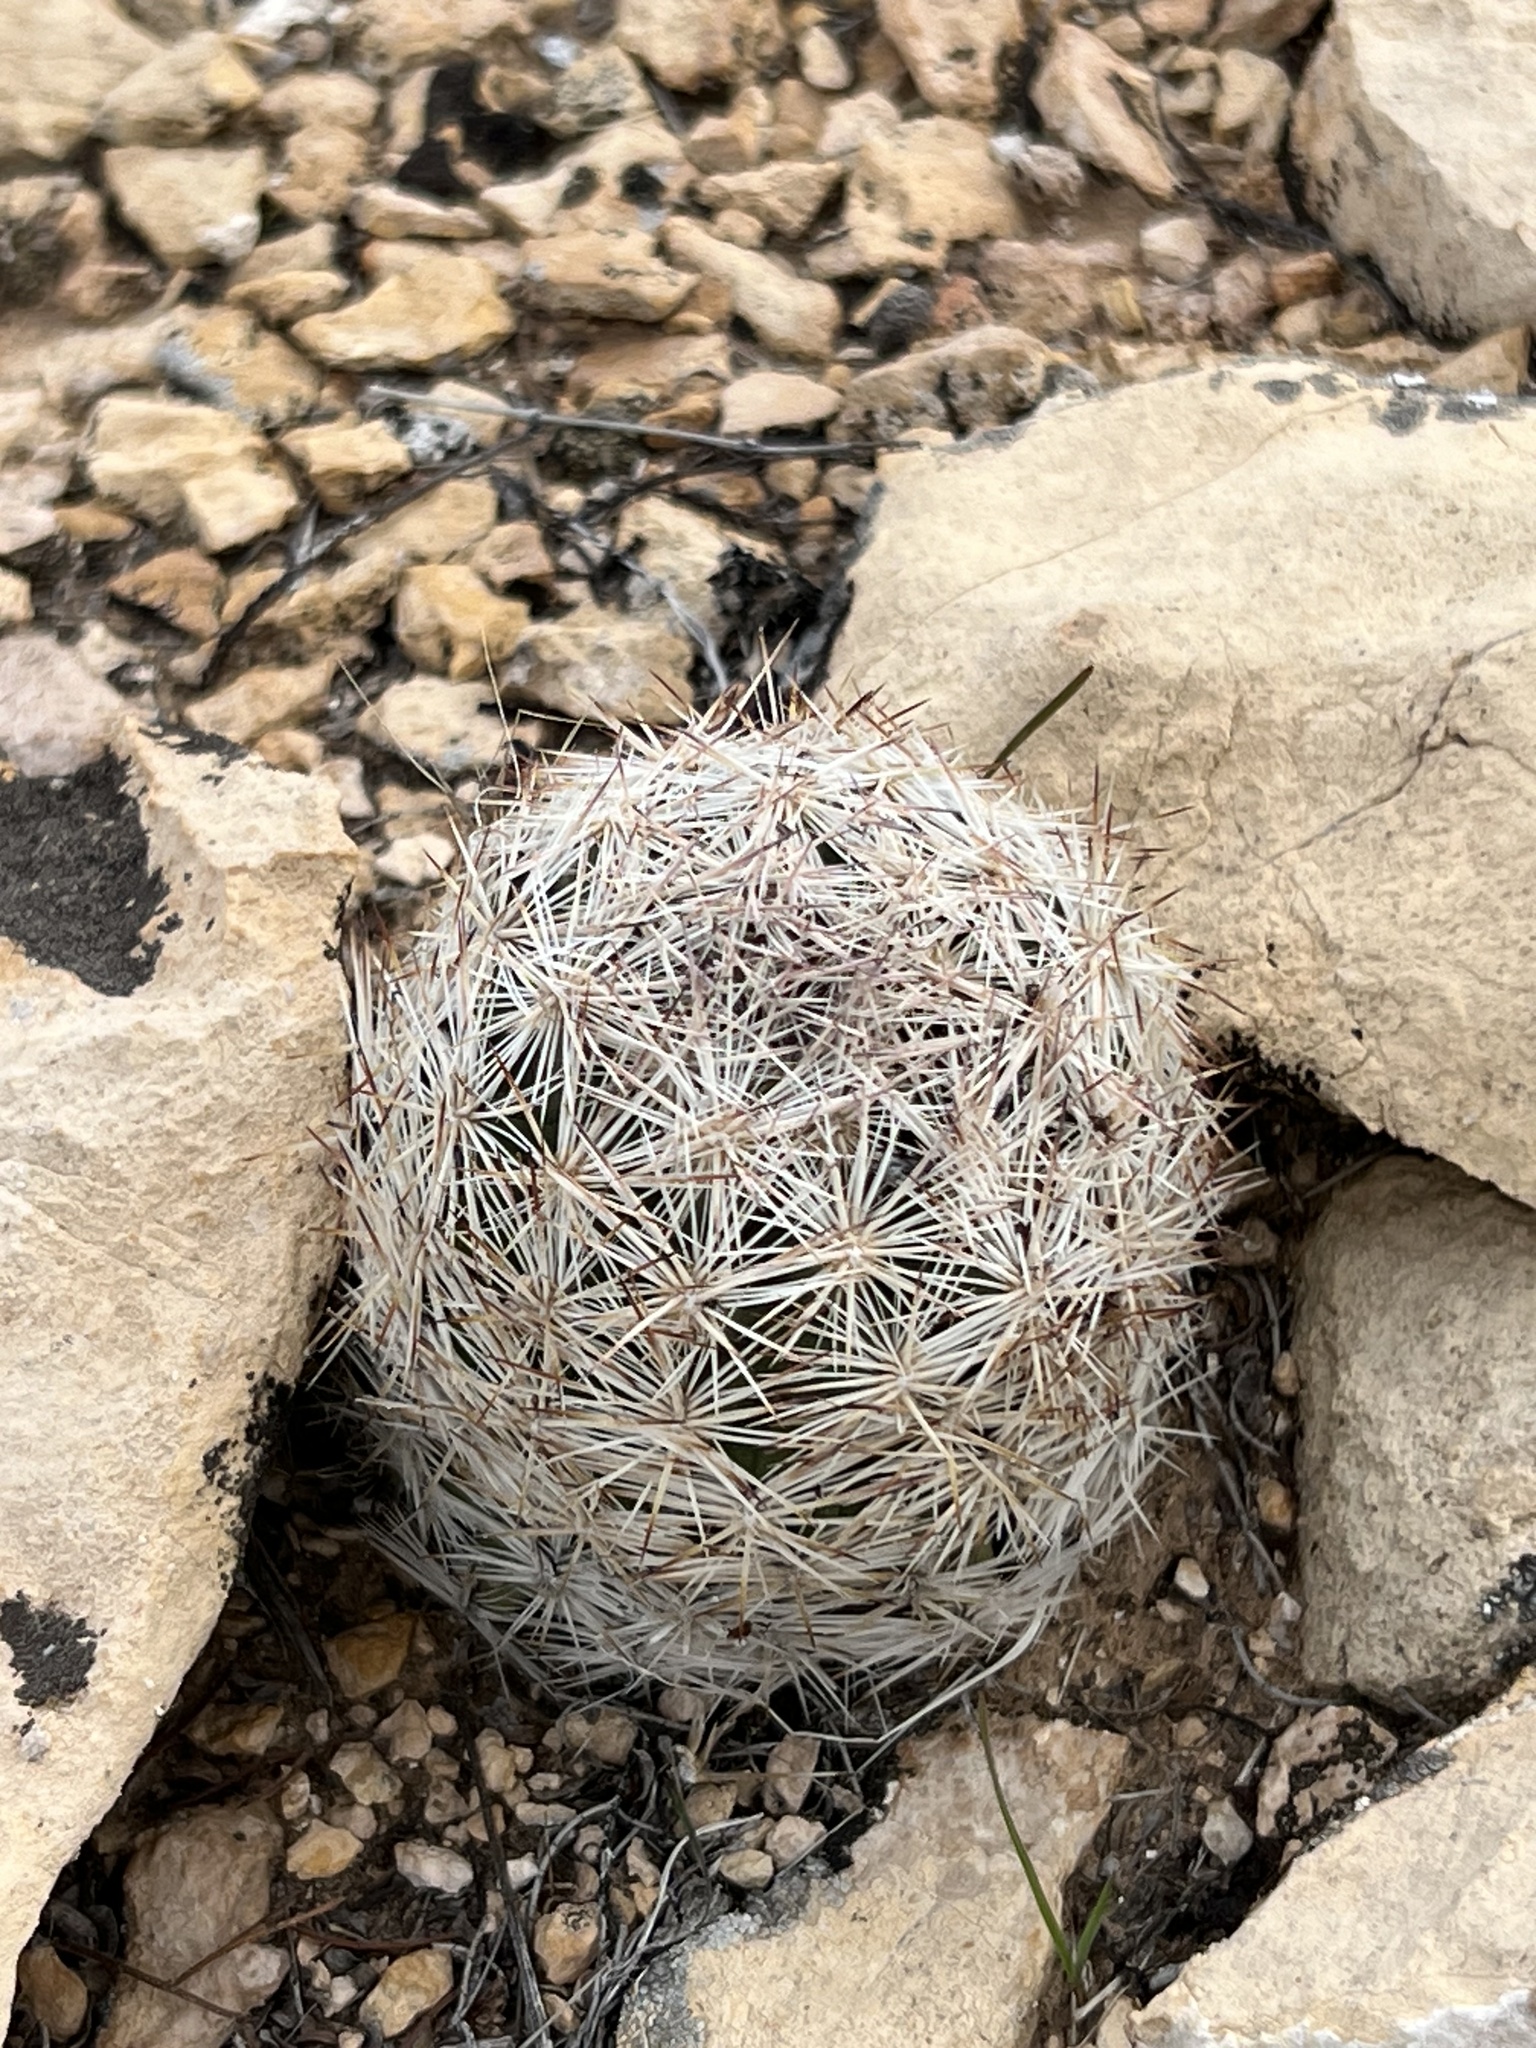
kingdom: Plantae
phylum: Tracheophyta
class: Magnoliopsida
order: Caryophyllales
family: Cactaceae
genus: Pelecyphora
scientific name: Pelecyphora dasyacantha
